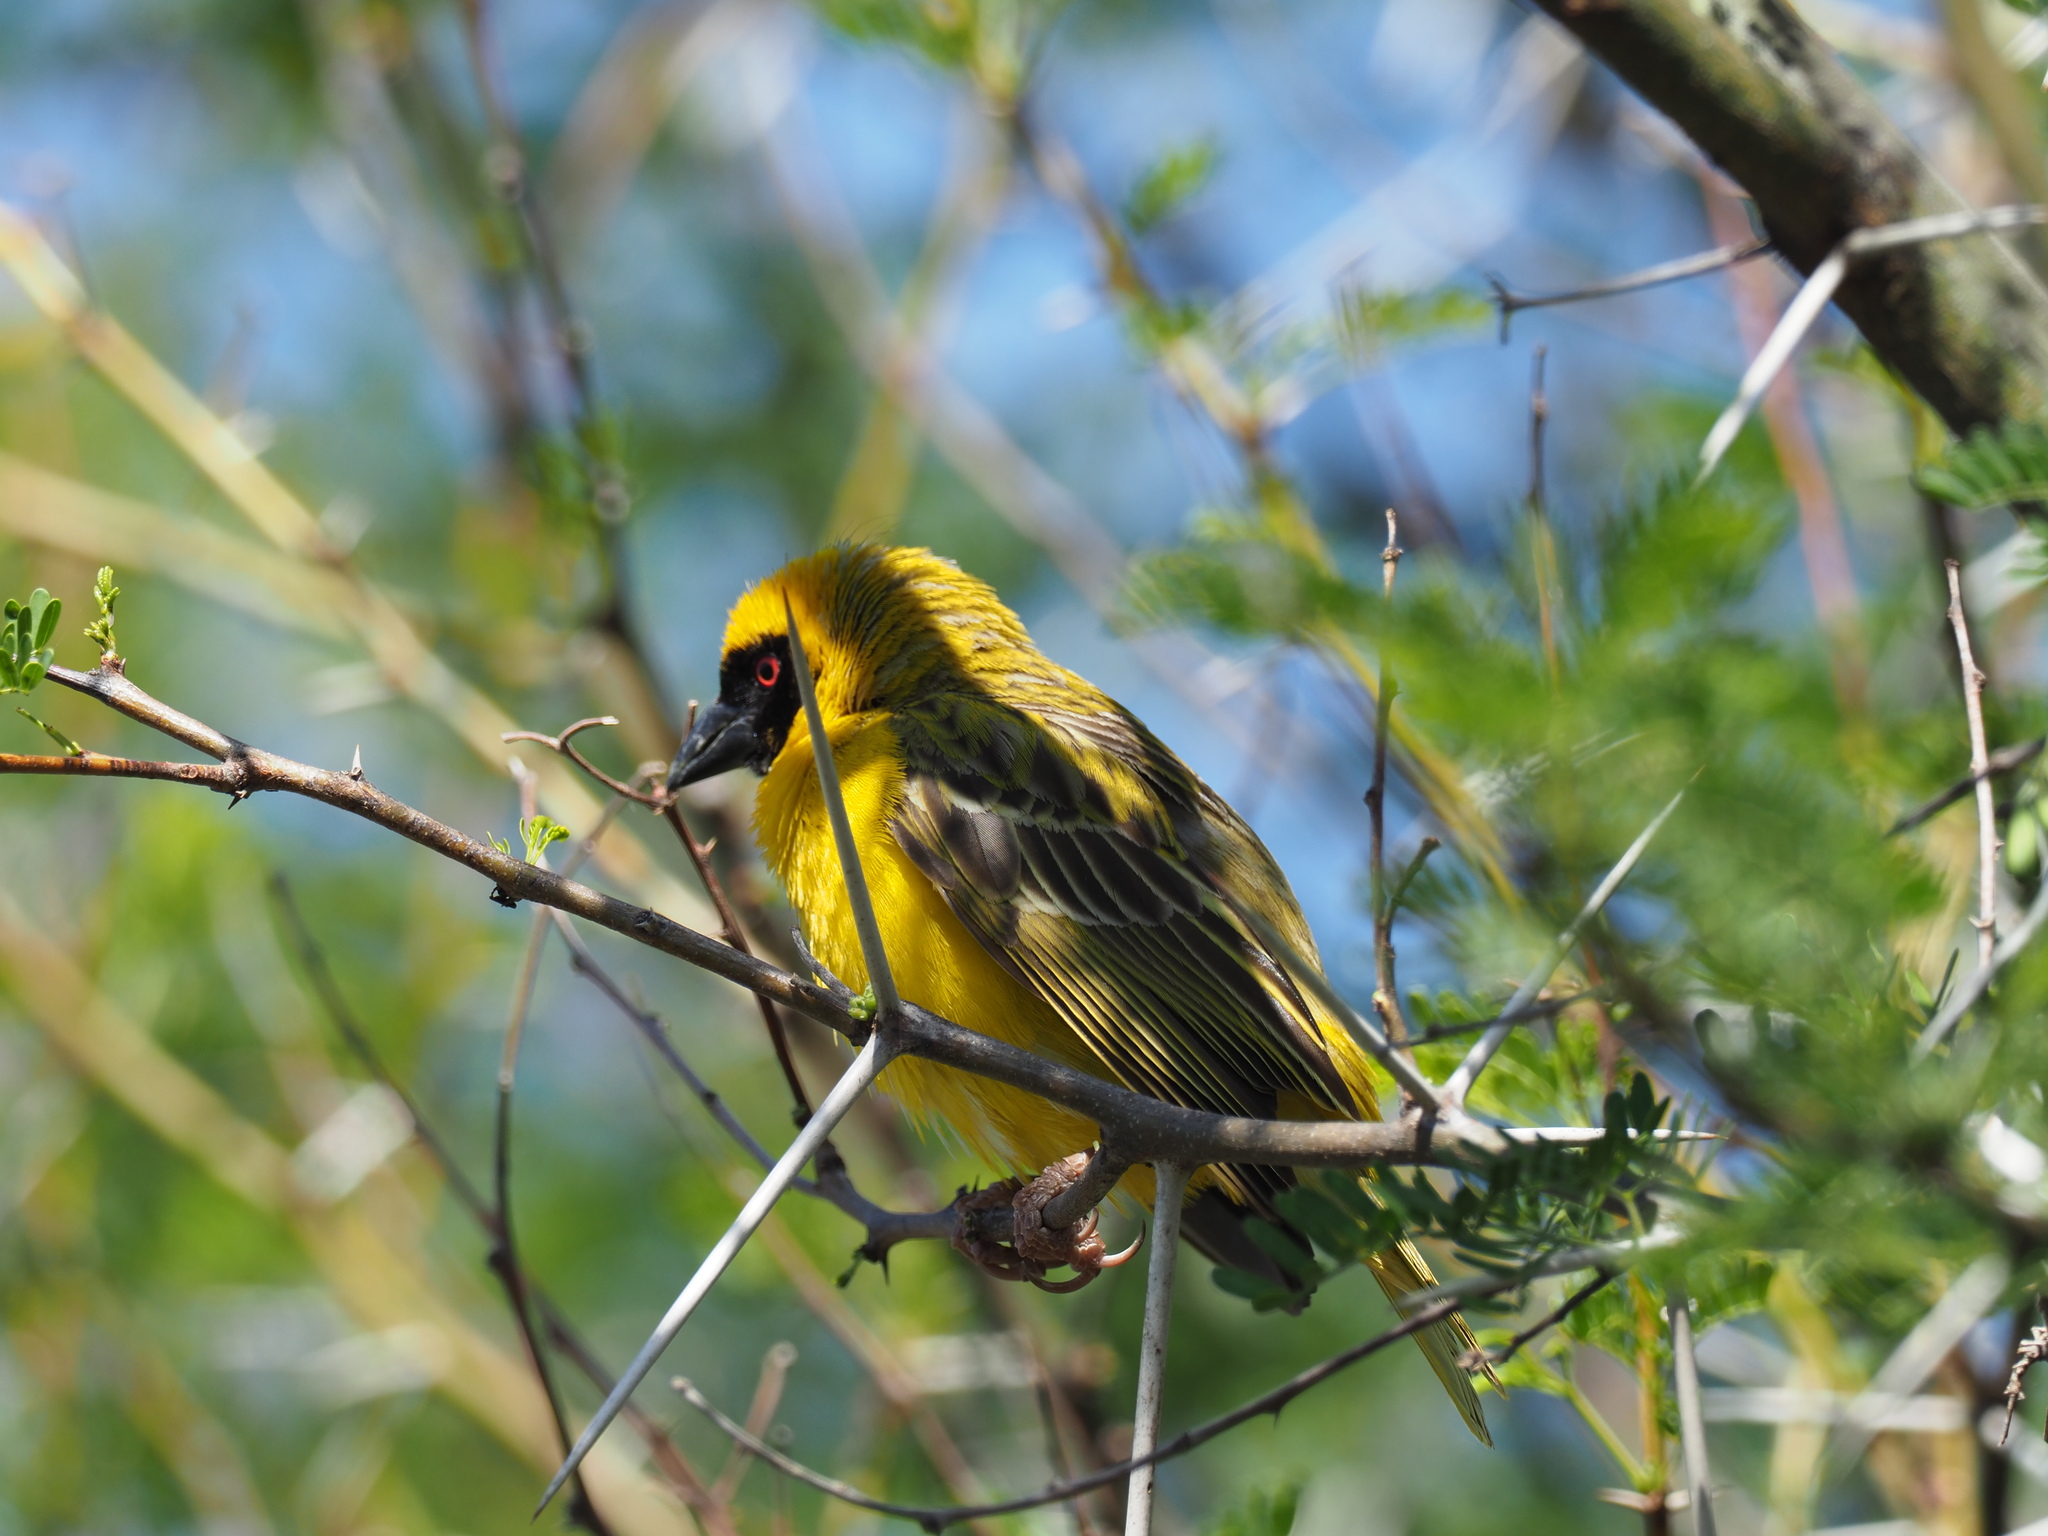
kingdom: Animalia
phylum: Chordata
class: Aves
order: Passeriformes
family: Ploceidae
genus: Ploceus
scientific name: Ploceus velatus
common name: Southern masked weaver
